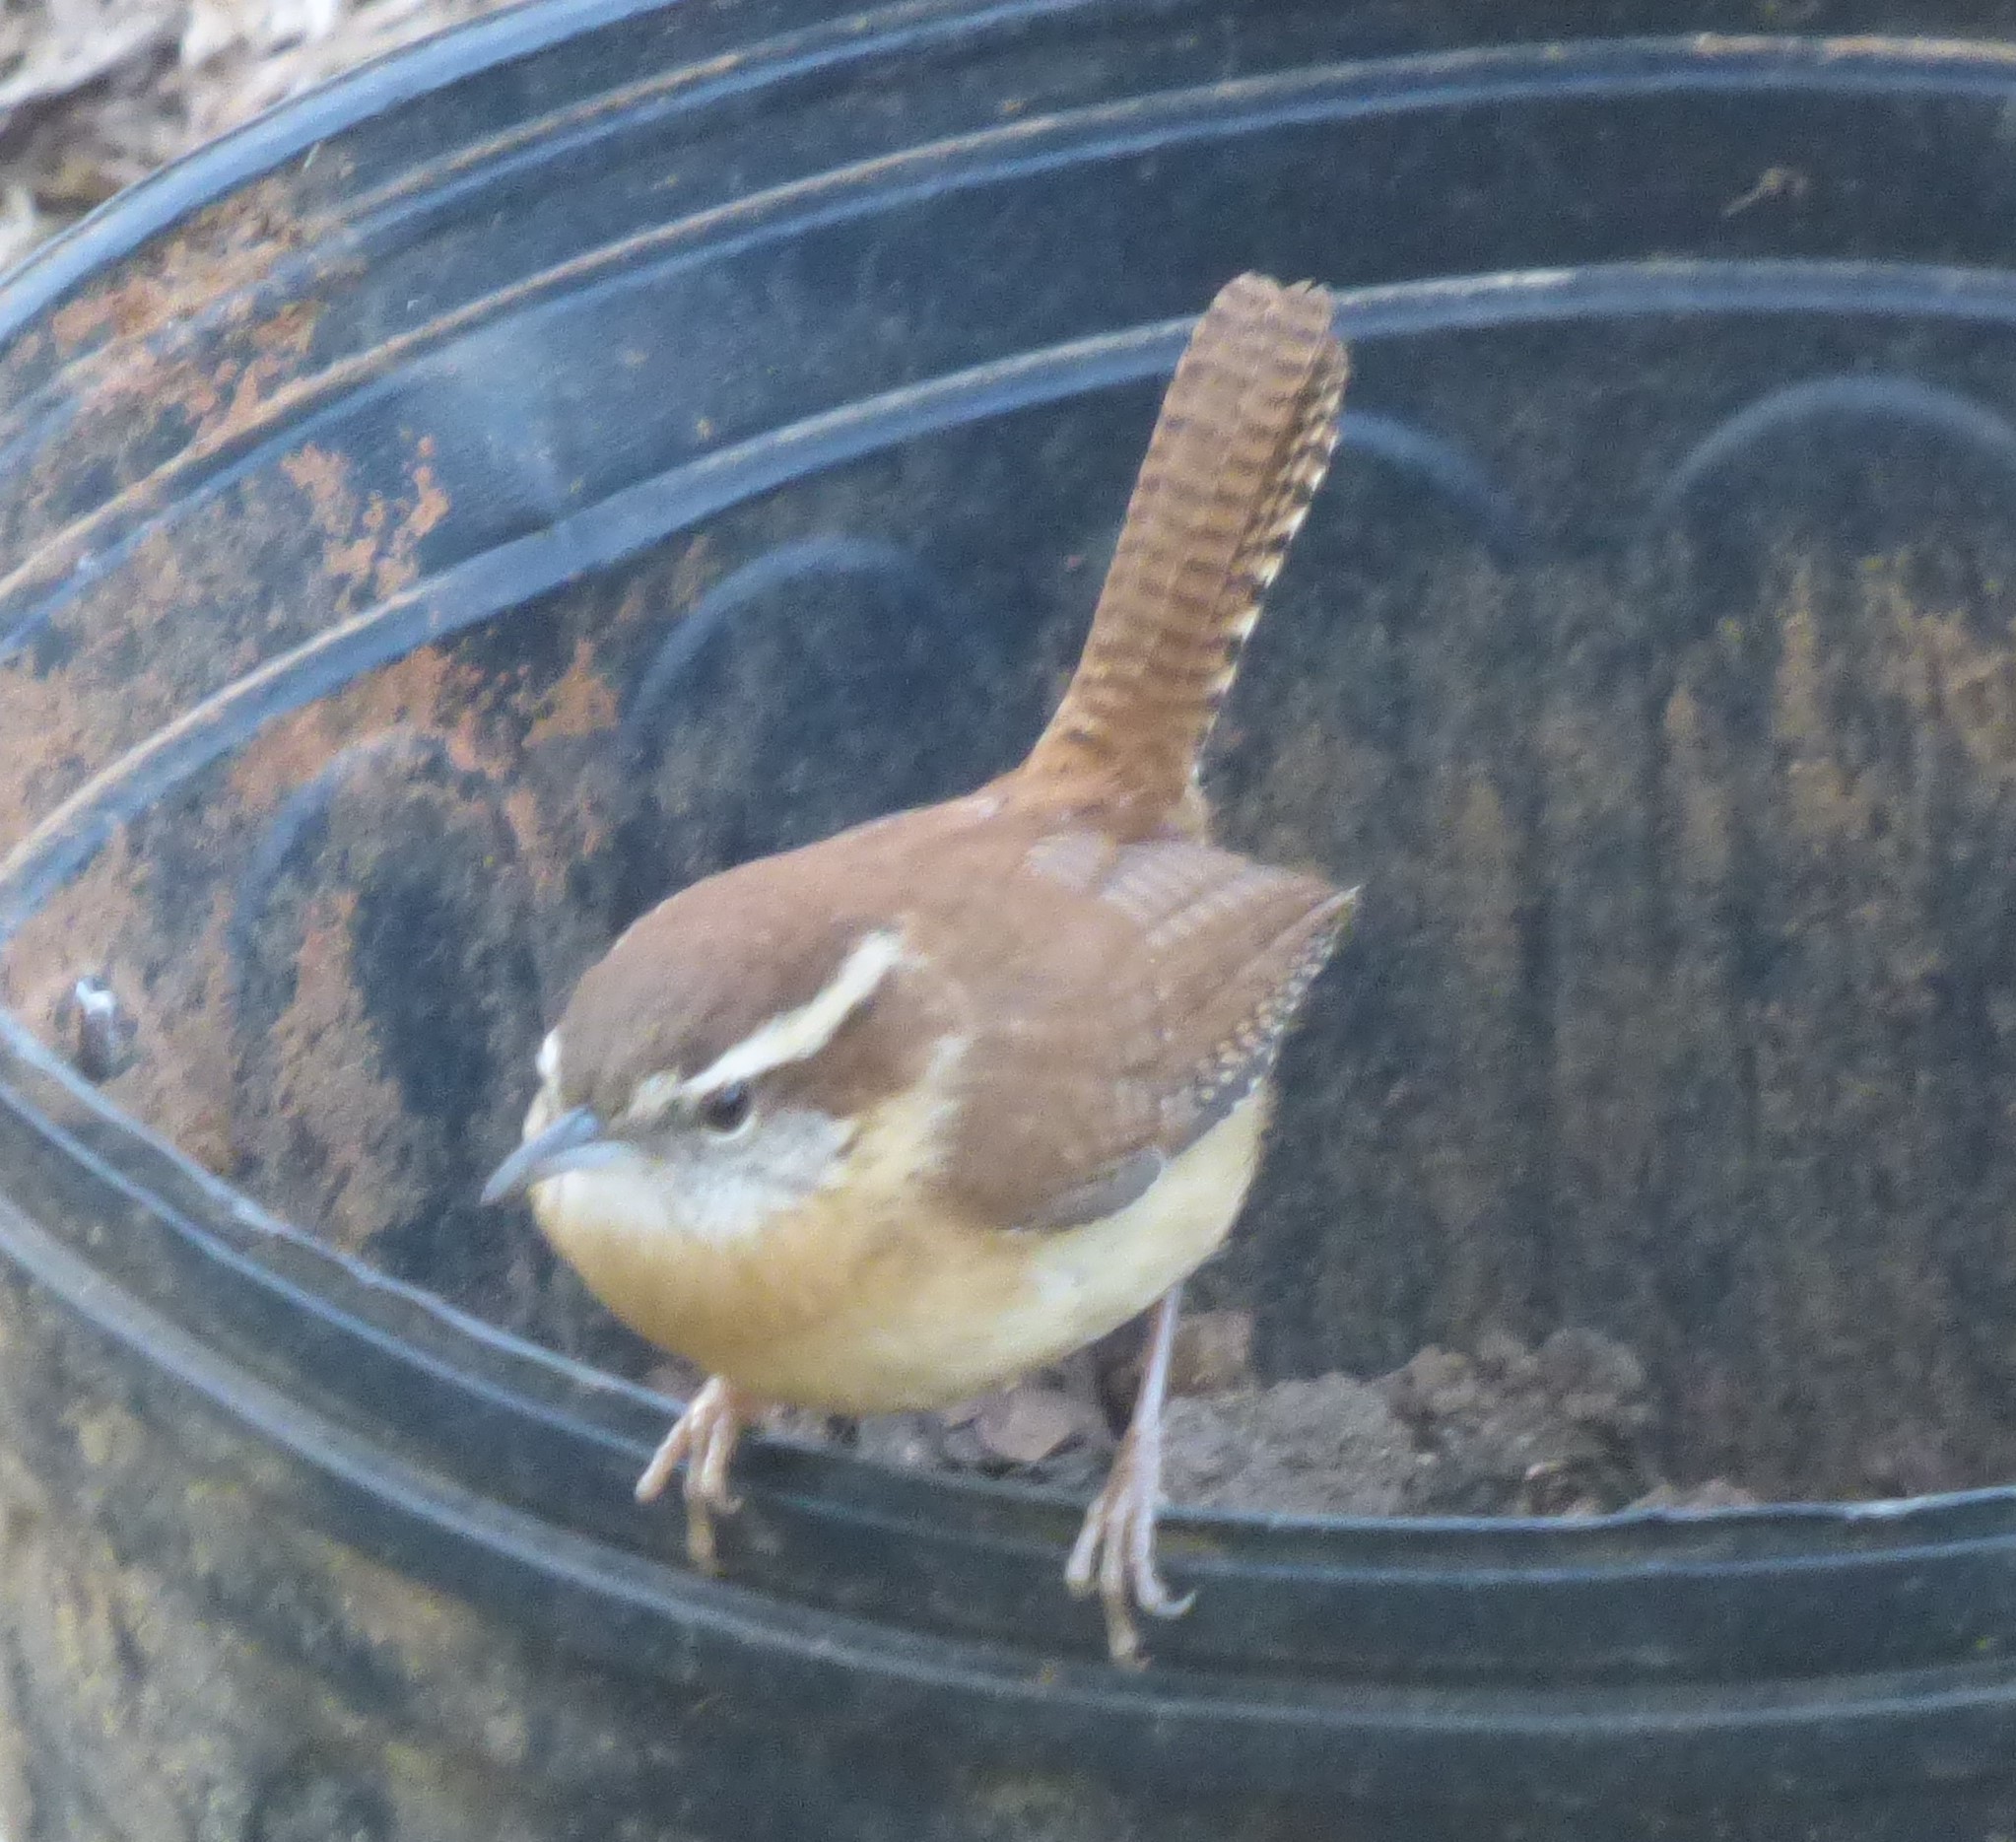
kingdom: Animalia
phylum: Chordata
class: Aves
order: Passeriformes
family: Troglodytidae
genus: Thryothorus
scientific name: Thryothorus ludovicianus
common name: Carolina wren
